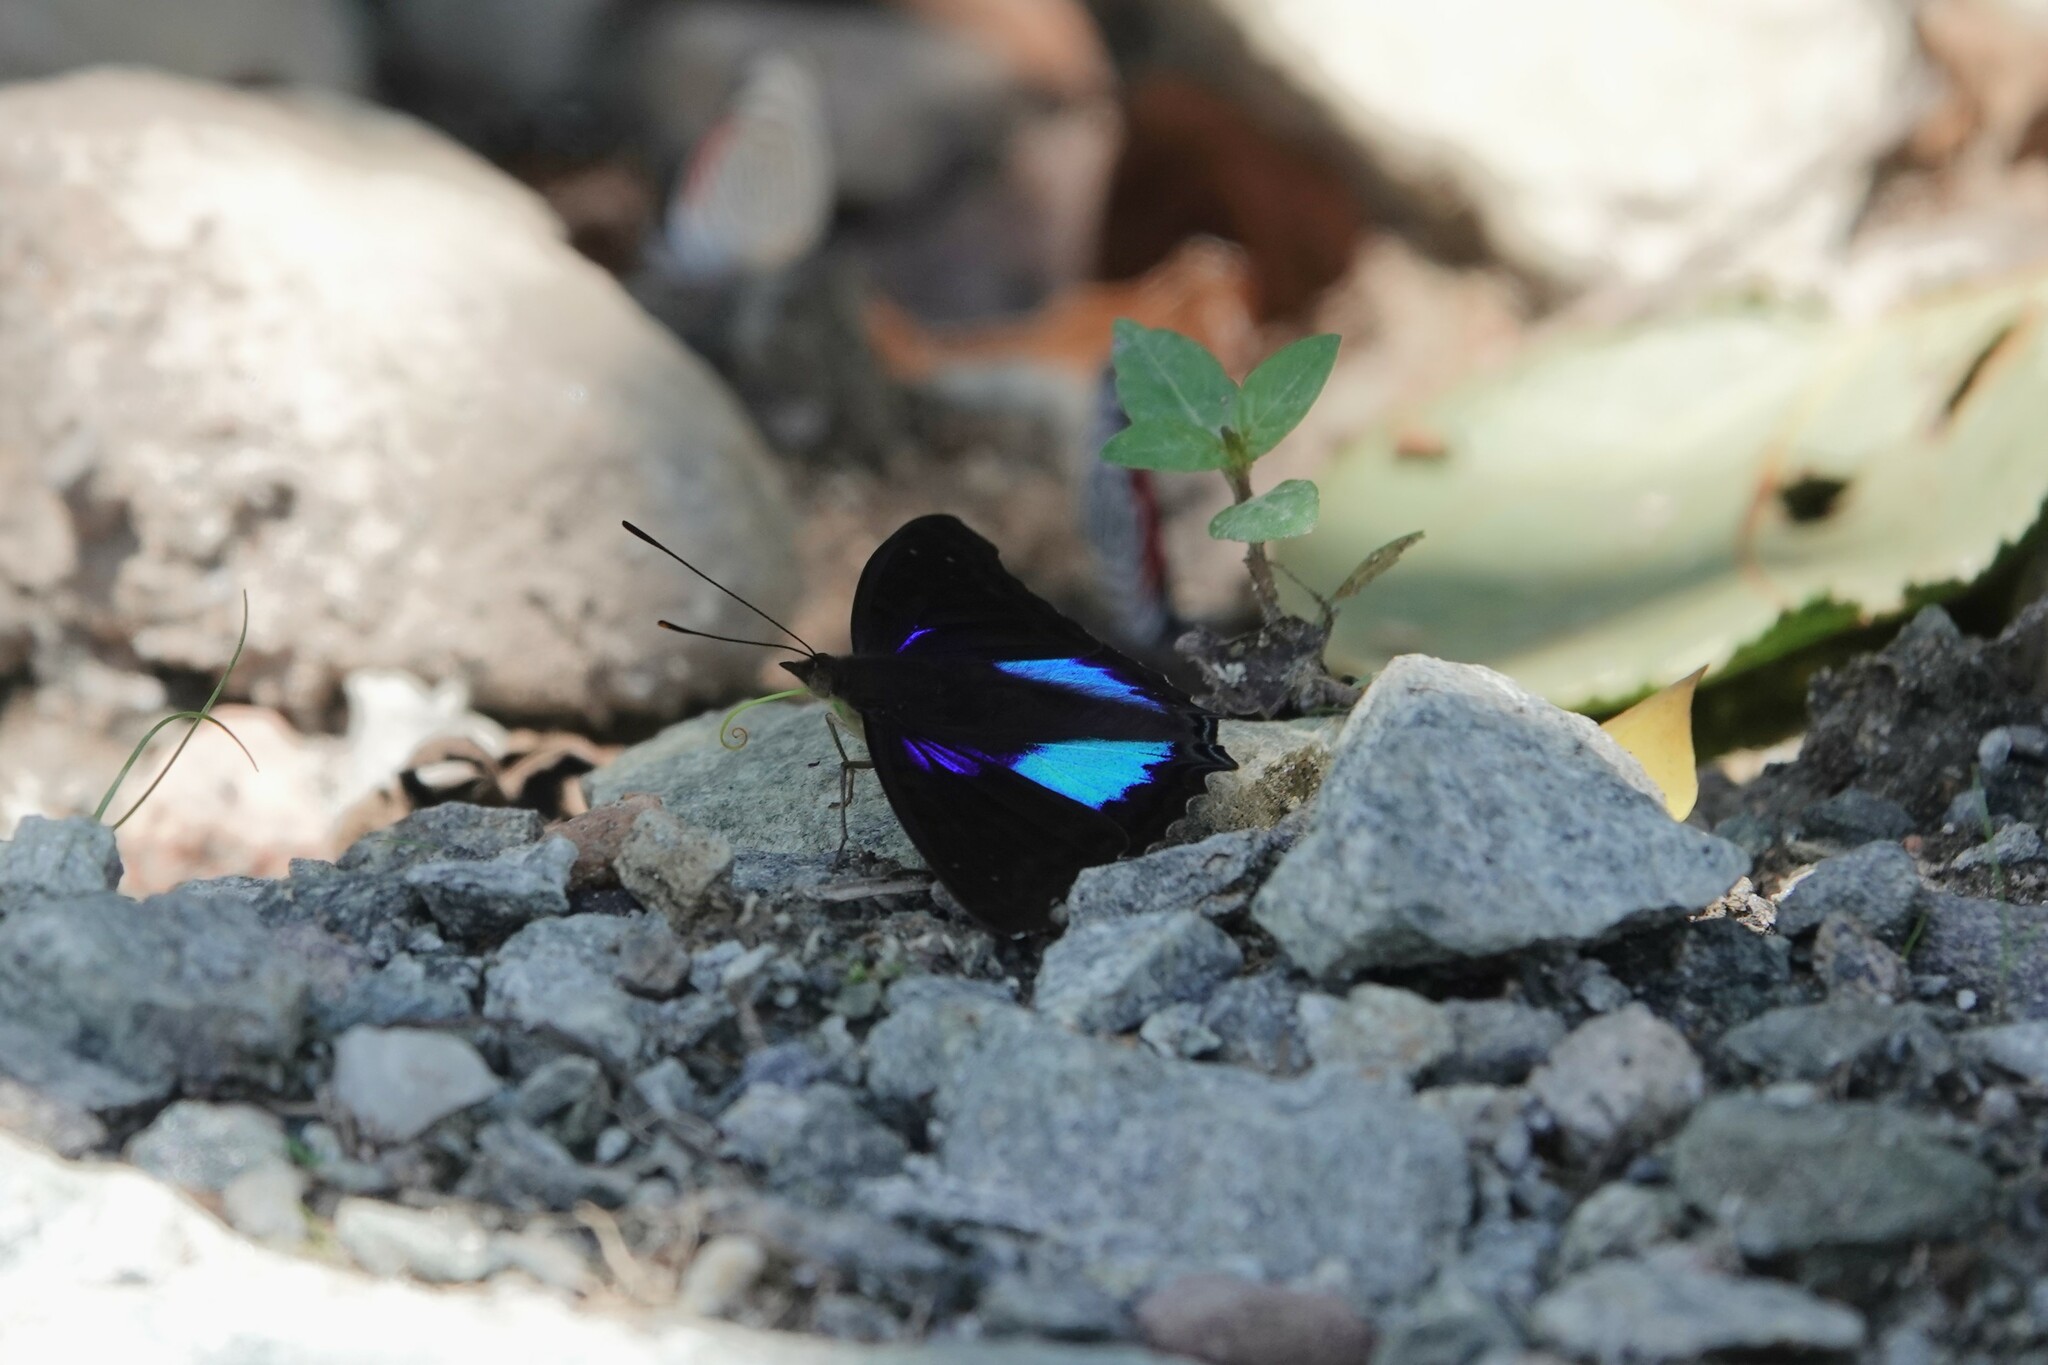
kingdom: Animalia
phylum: Arthropoda
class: Insecta
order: Lepidoptera
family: Nymphalidae
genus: Doxocopa
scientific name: Doxocopa cyane
